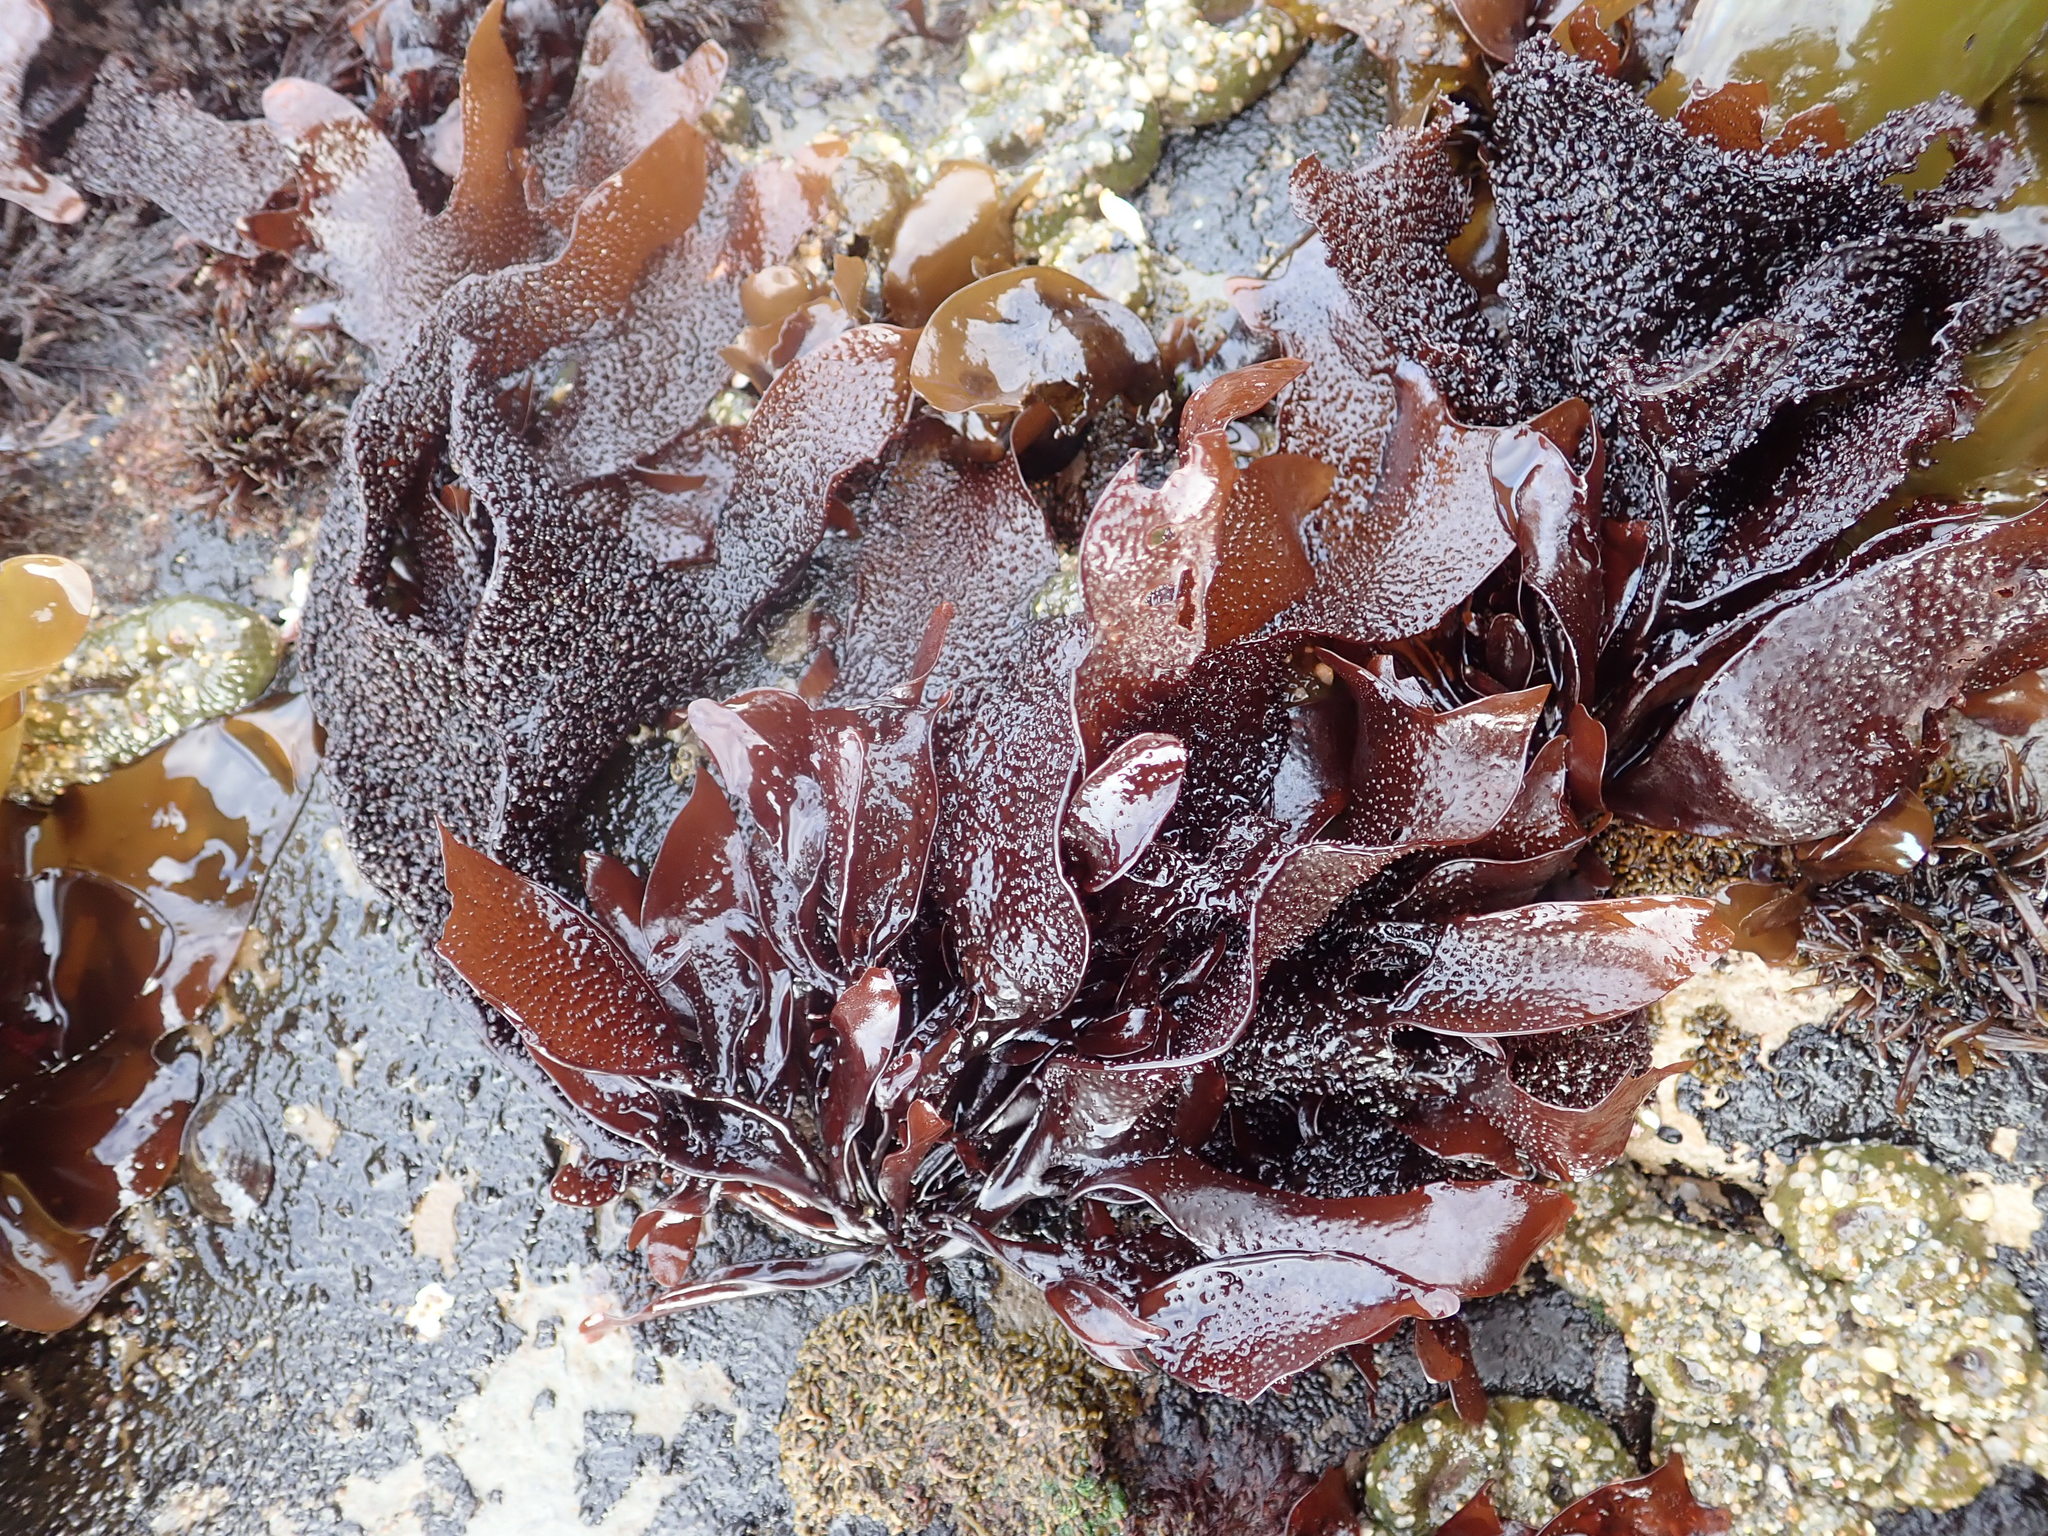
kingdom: Plantae
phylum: Rhodophyta
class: Florideophyceae
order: Gigartinales
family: Phyllophoraceae
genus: Mastocarpus
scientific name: Mastocarpus papillatus
